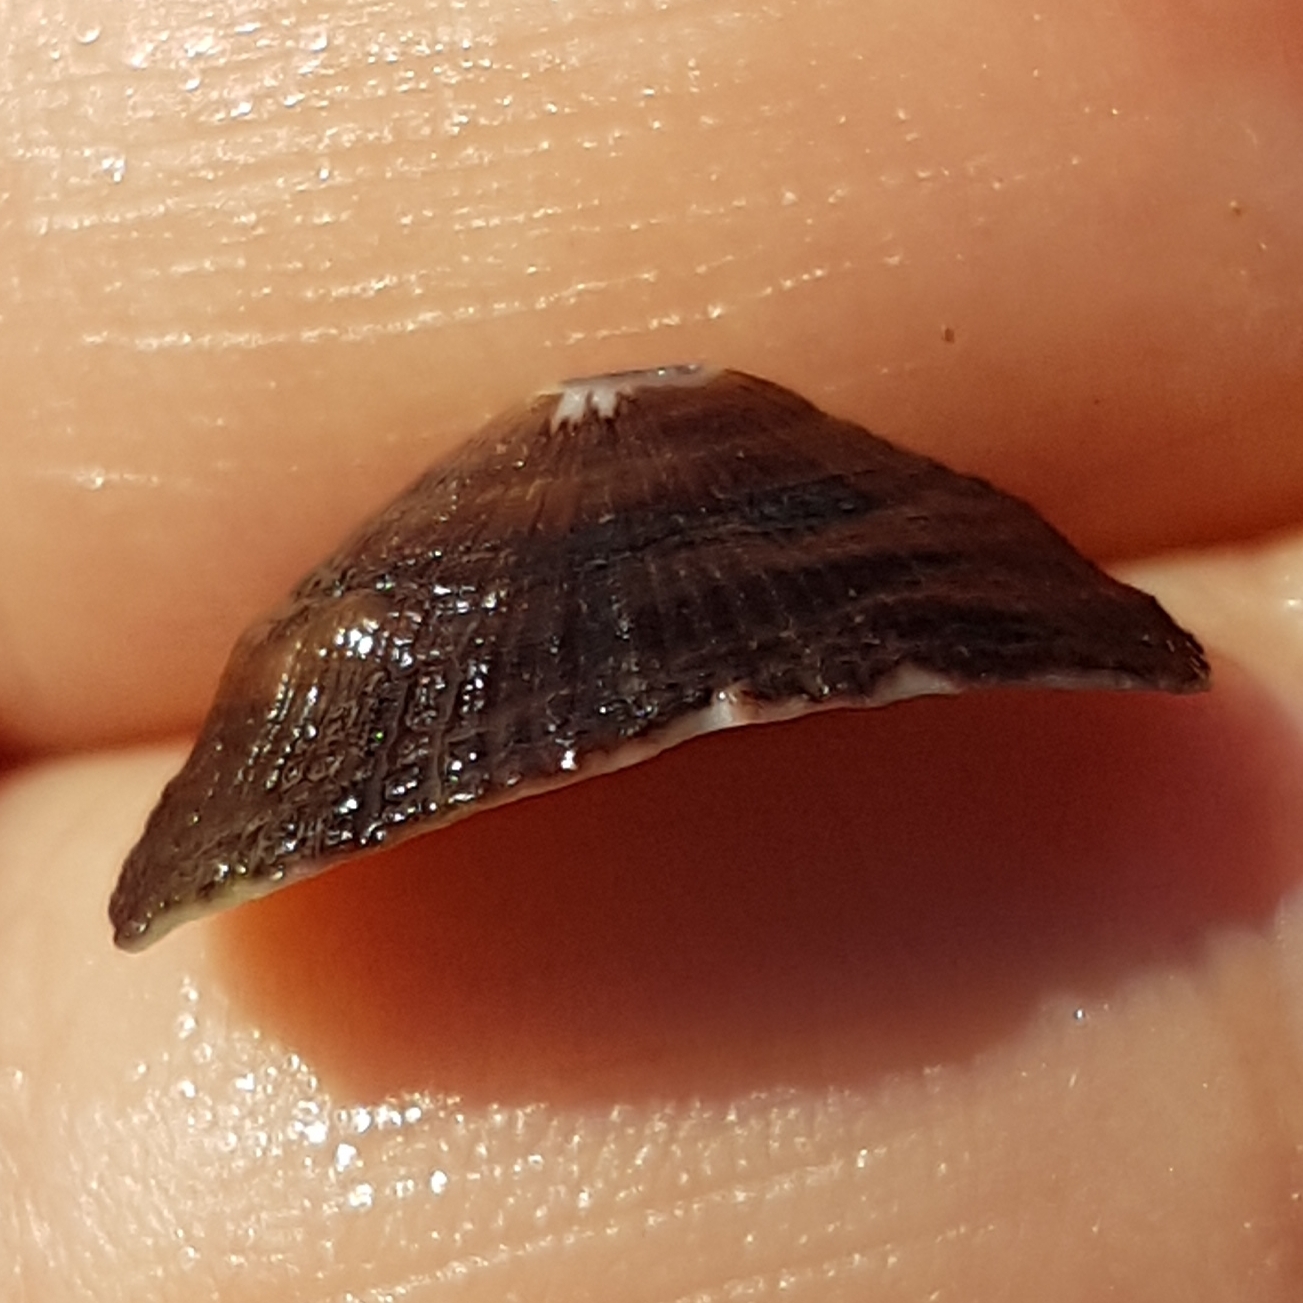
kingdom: Animalia
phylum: Mollusca
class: Gastropoda
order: Lepetellida
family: Fissurellidae
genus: Fissurella
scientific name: Fissurella nubecula
